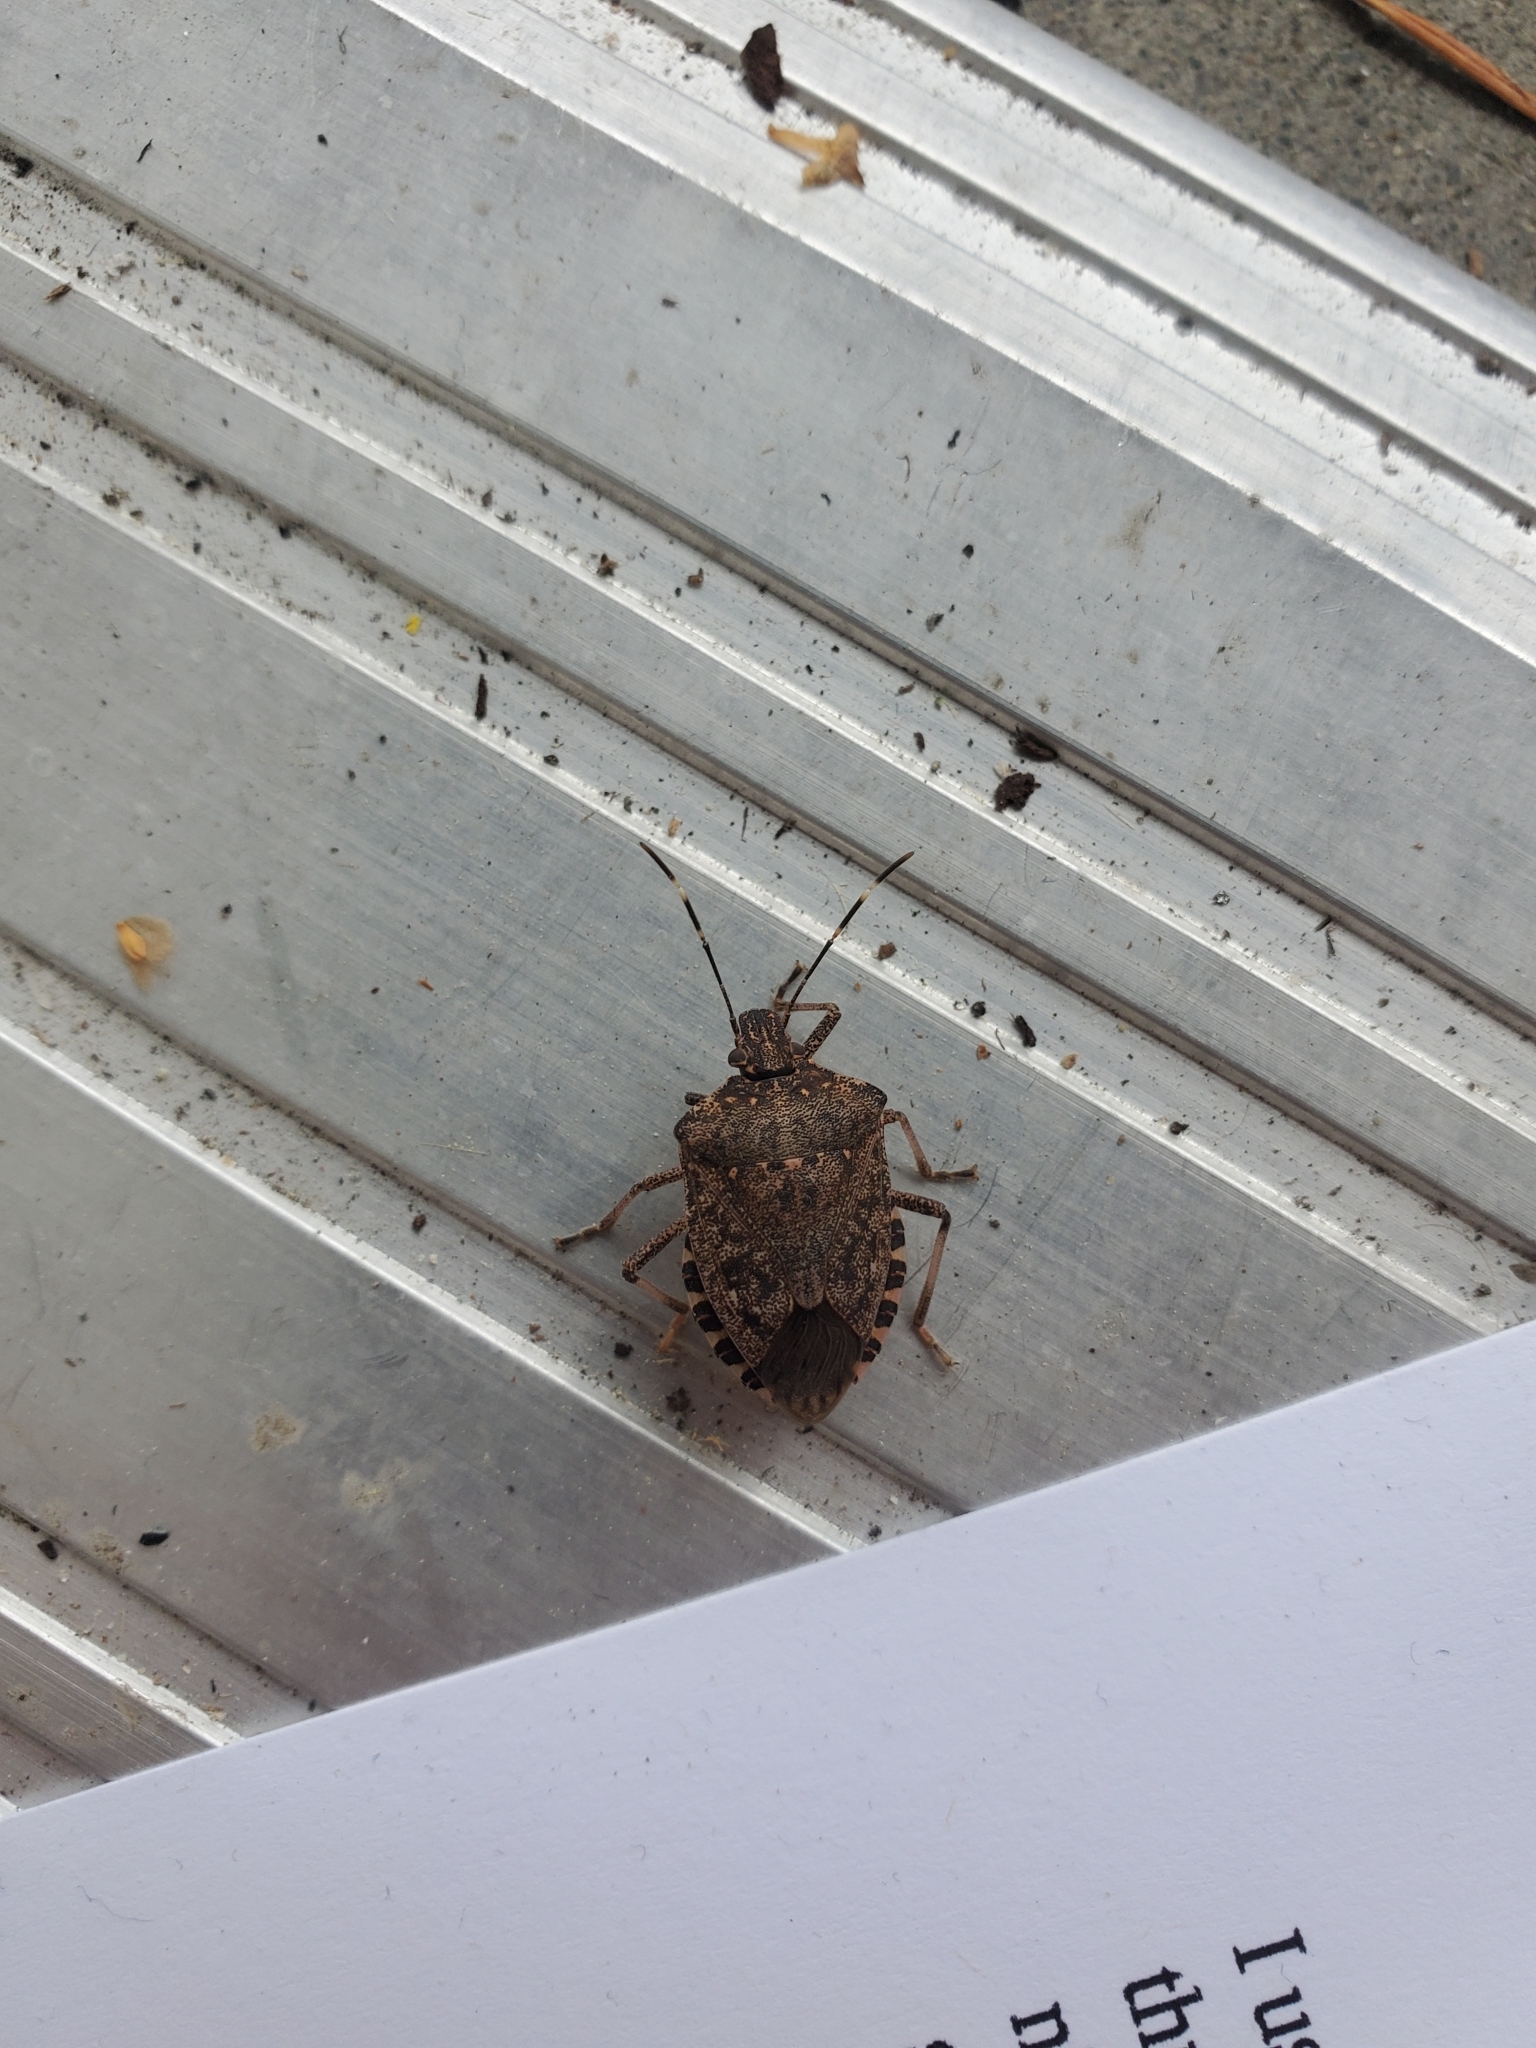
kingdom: Animalia
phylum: Arthropoda
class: Insecta
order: Hemiptera
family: Pentatomidae
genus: Halyomorpha
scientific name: Halyomorpha halys
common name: Brown marmorated stink bug
